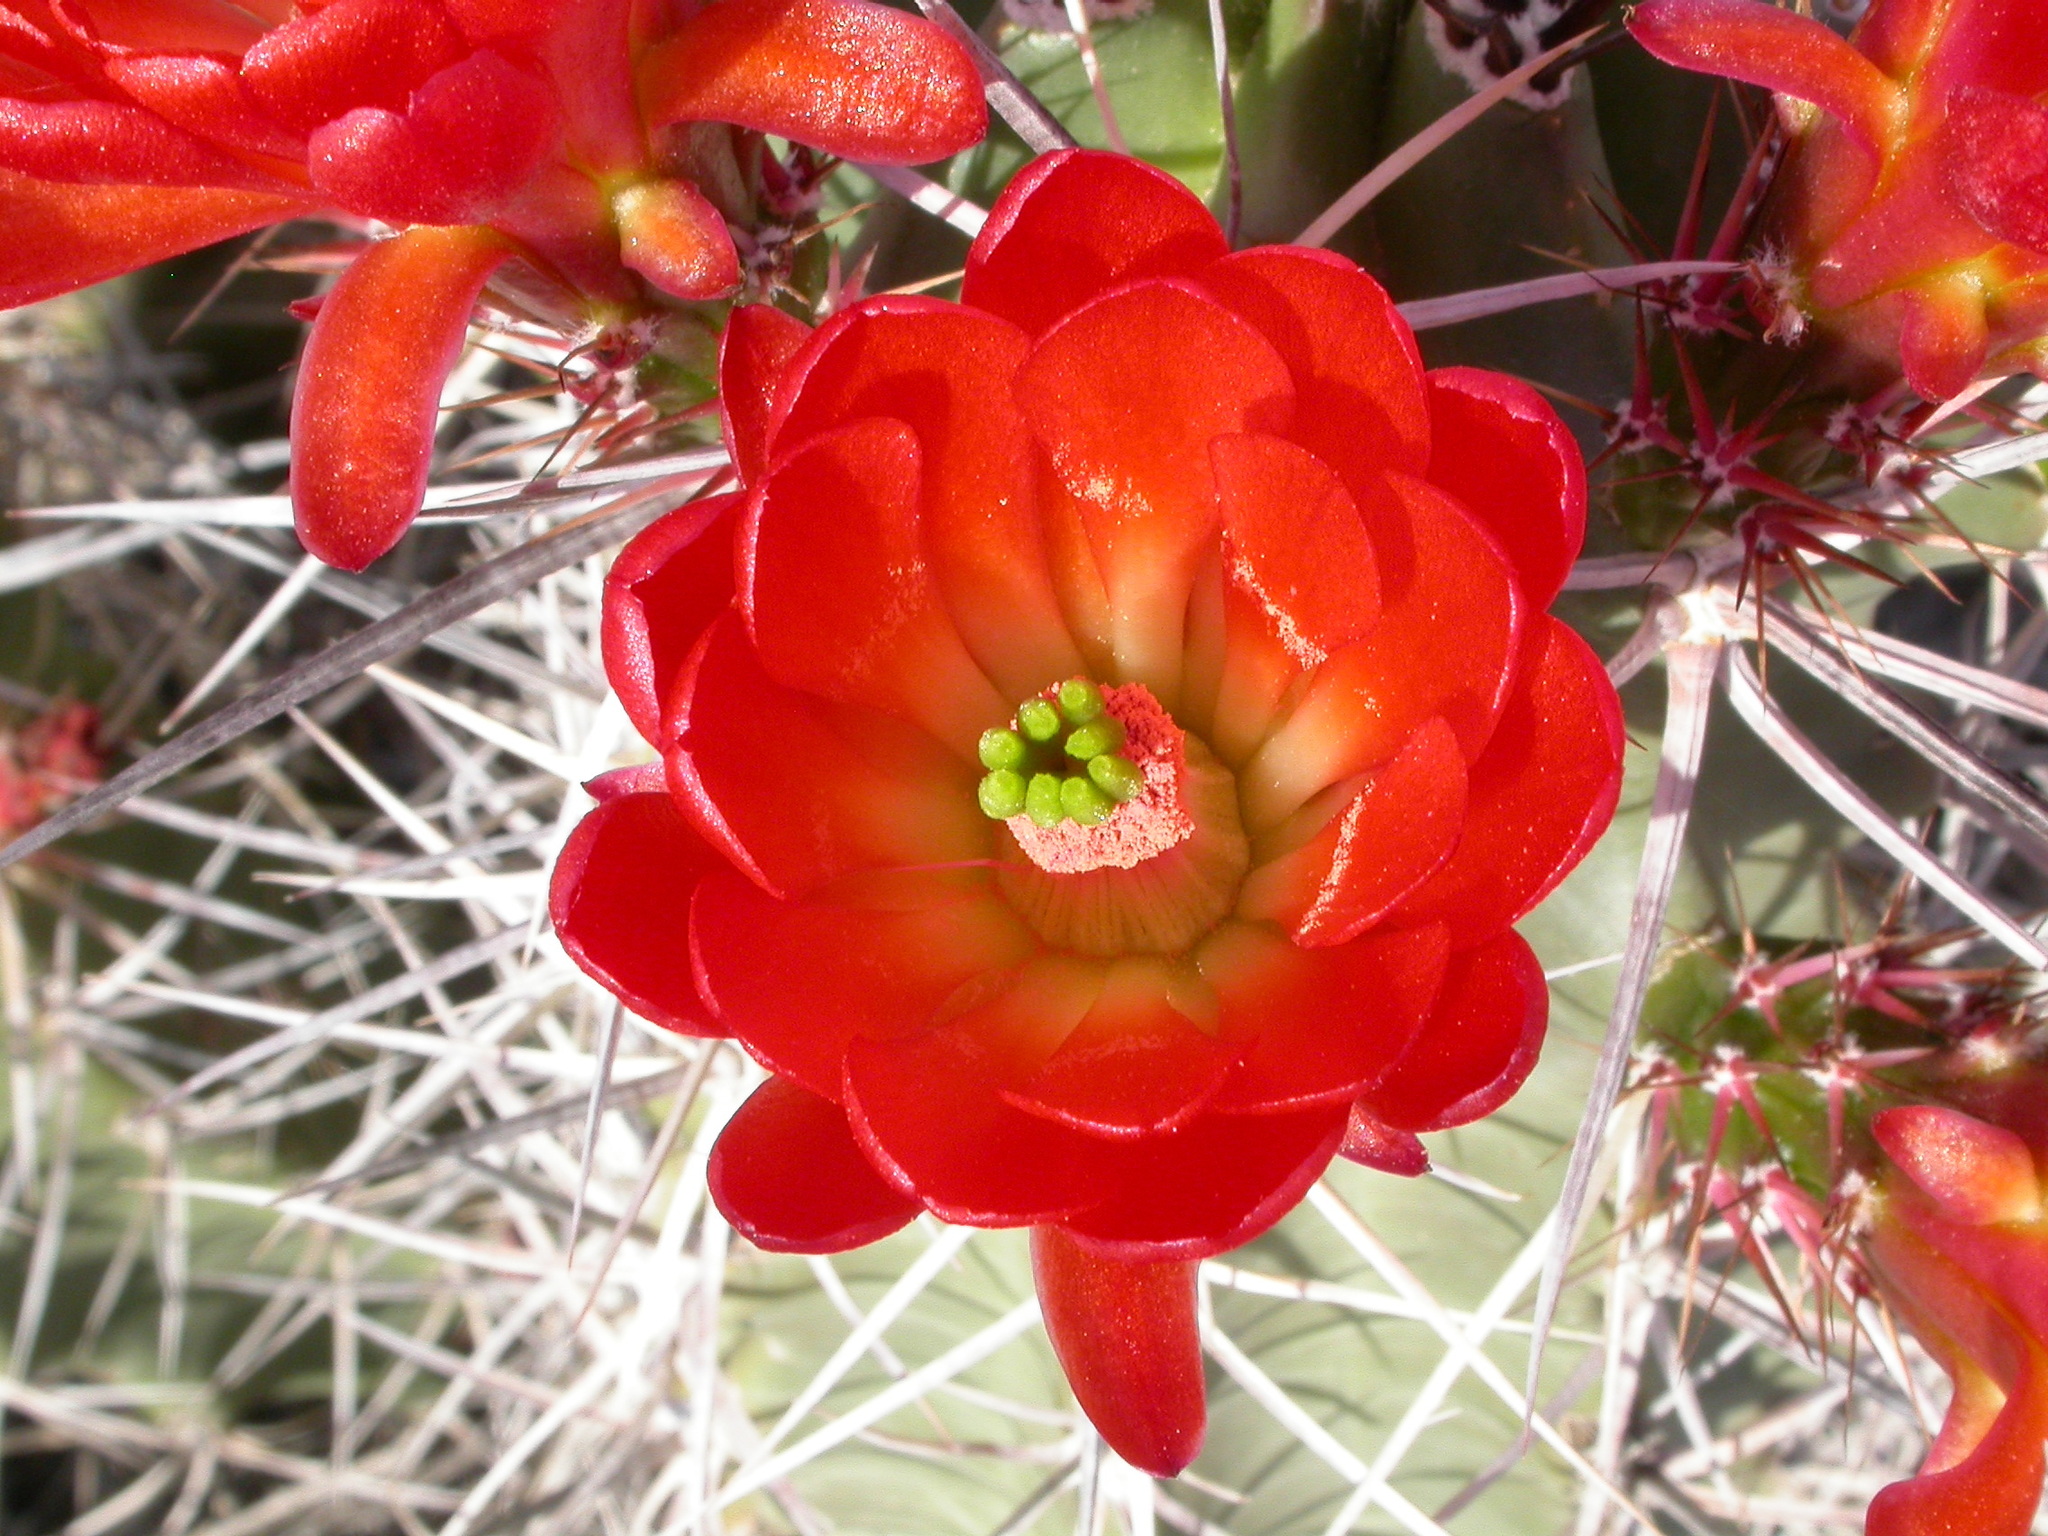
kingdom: Plantae
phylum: Tracheophyta
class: Magnoliopsida
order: Caryophyllales
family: Cactaceae
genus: Echinocereus
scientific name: Echinocereus triglochidiatus
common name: Claretcup hedgehog
